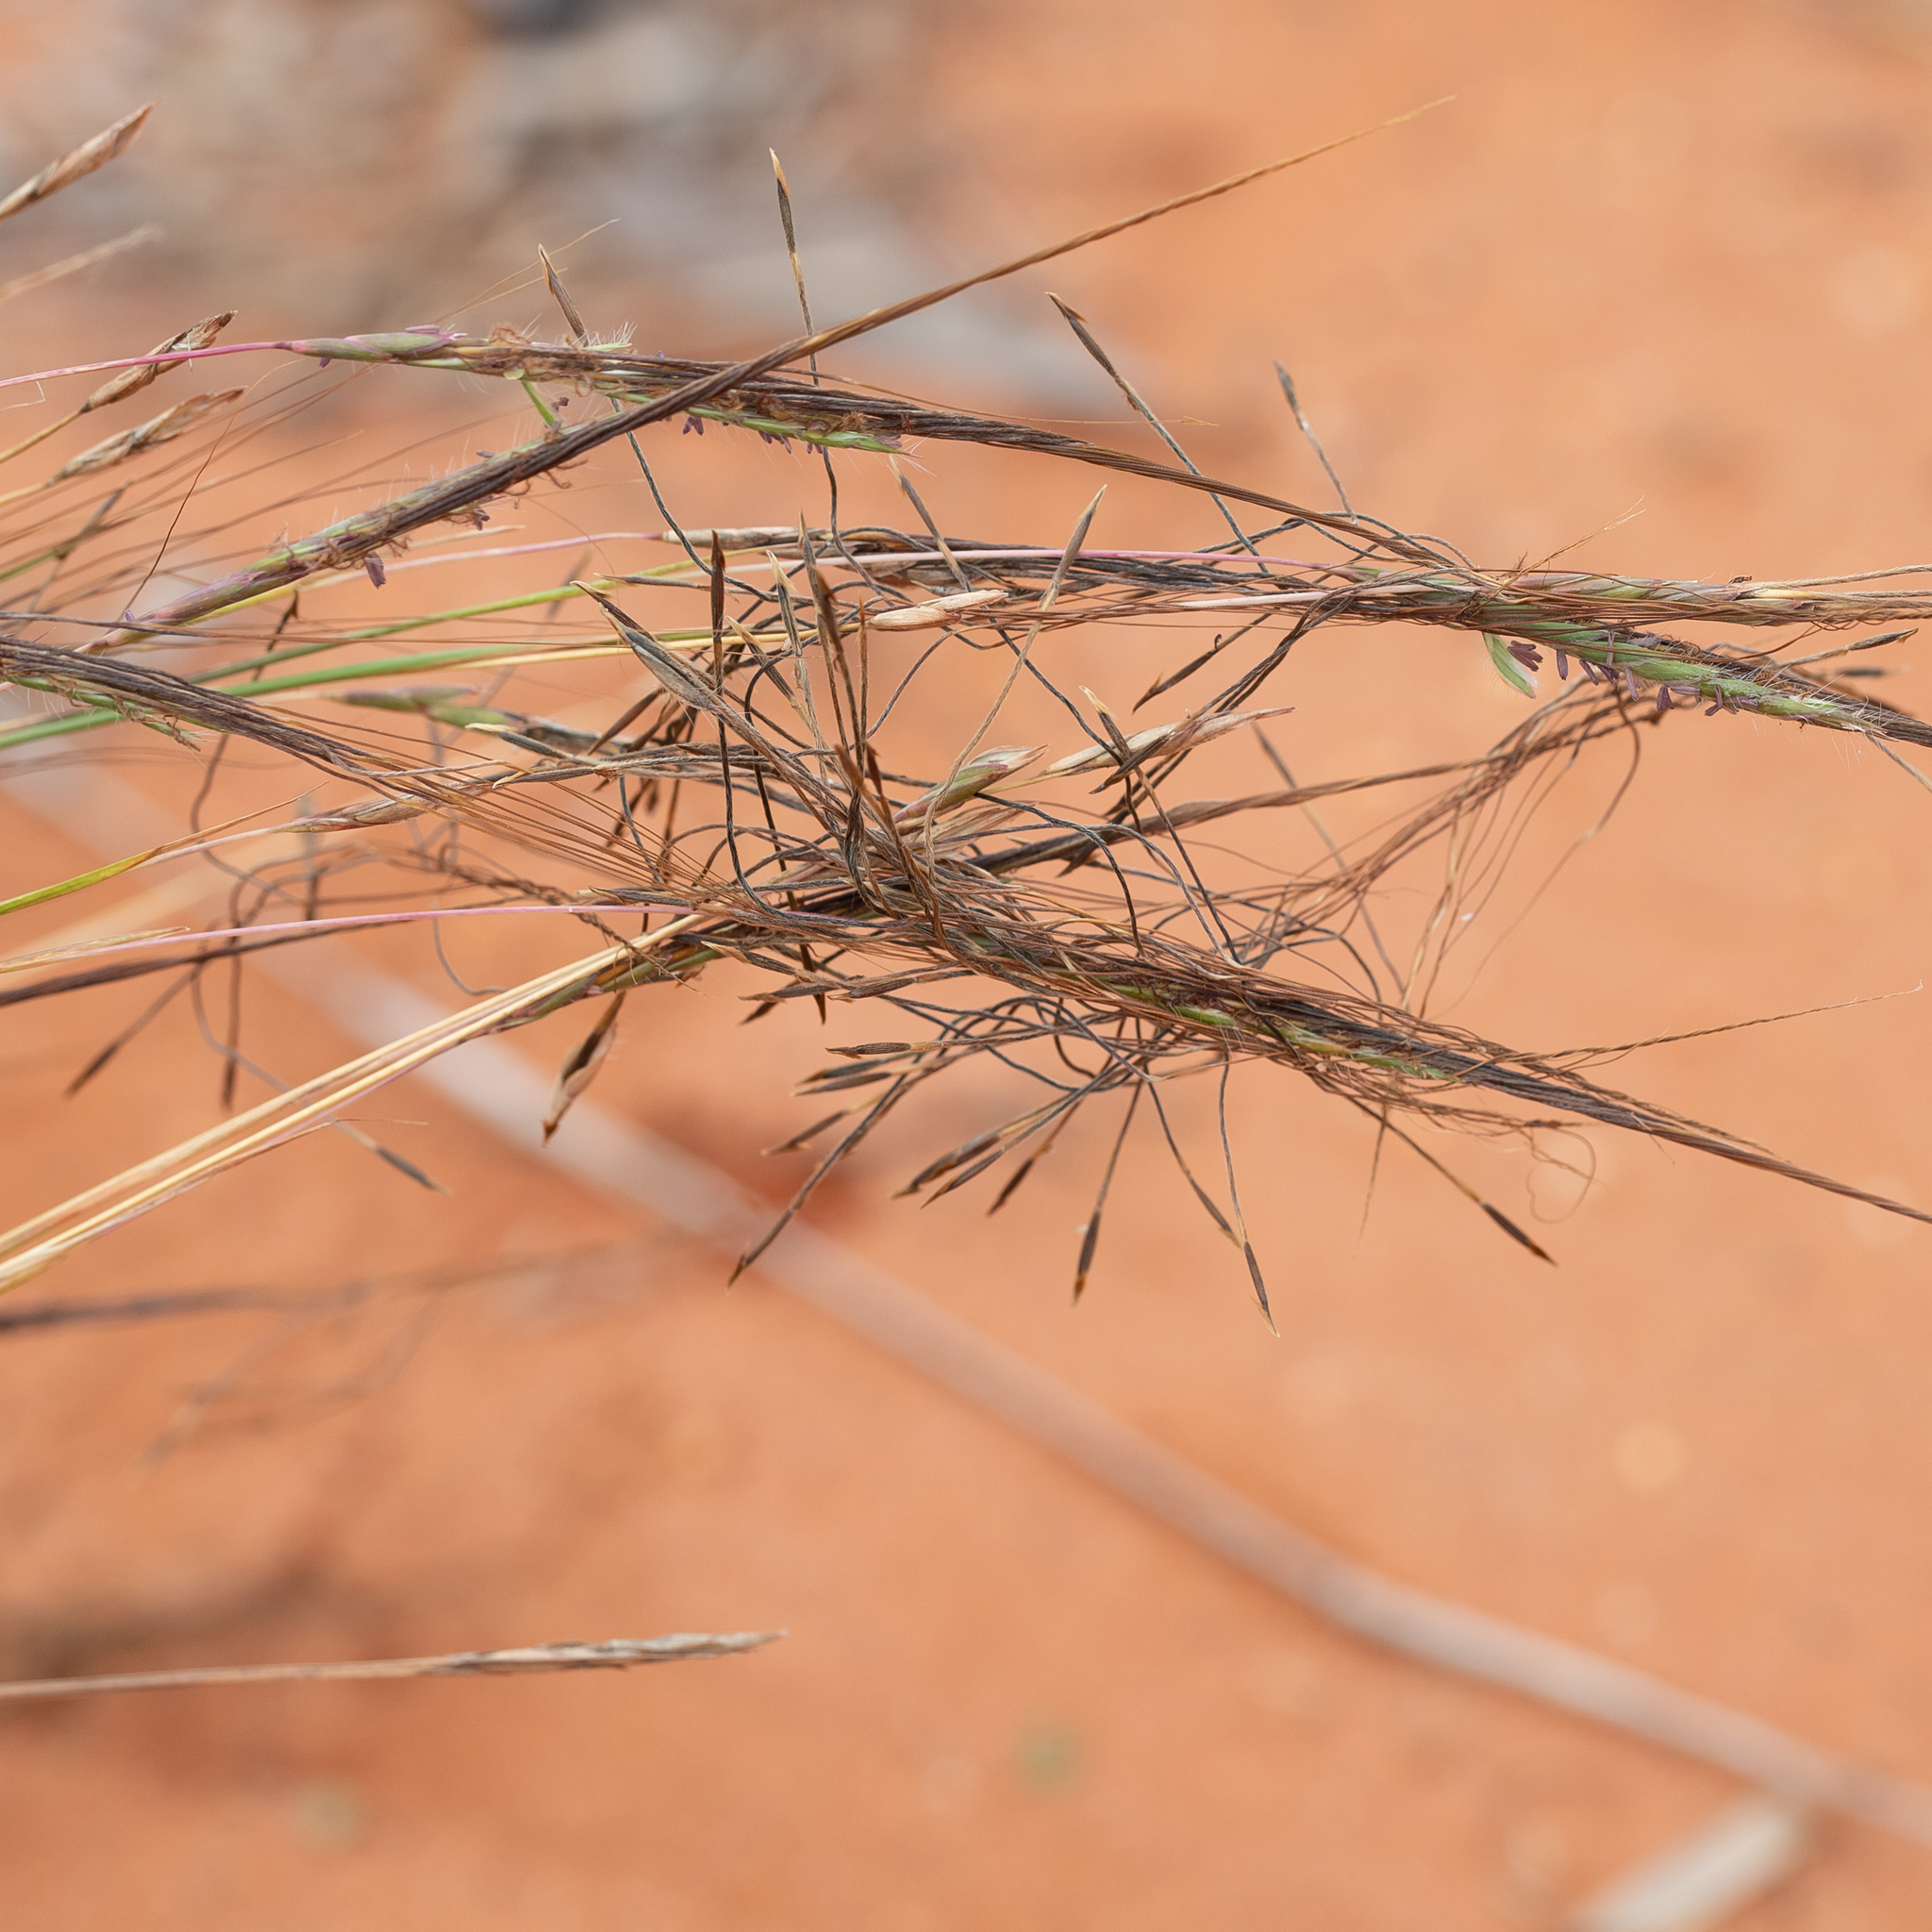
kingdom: Plantae
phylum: Tracheophyta
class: Liliopsida
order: Poales
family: Poaceae
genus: Heteropogon
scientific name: Heteropogon contortus
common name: Tanglehead
